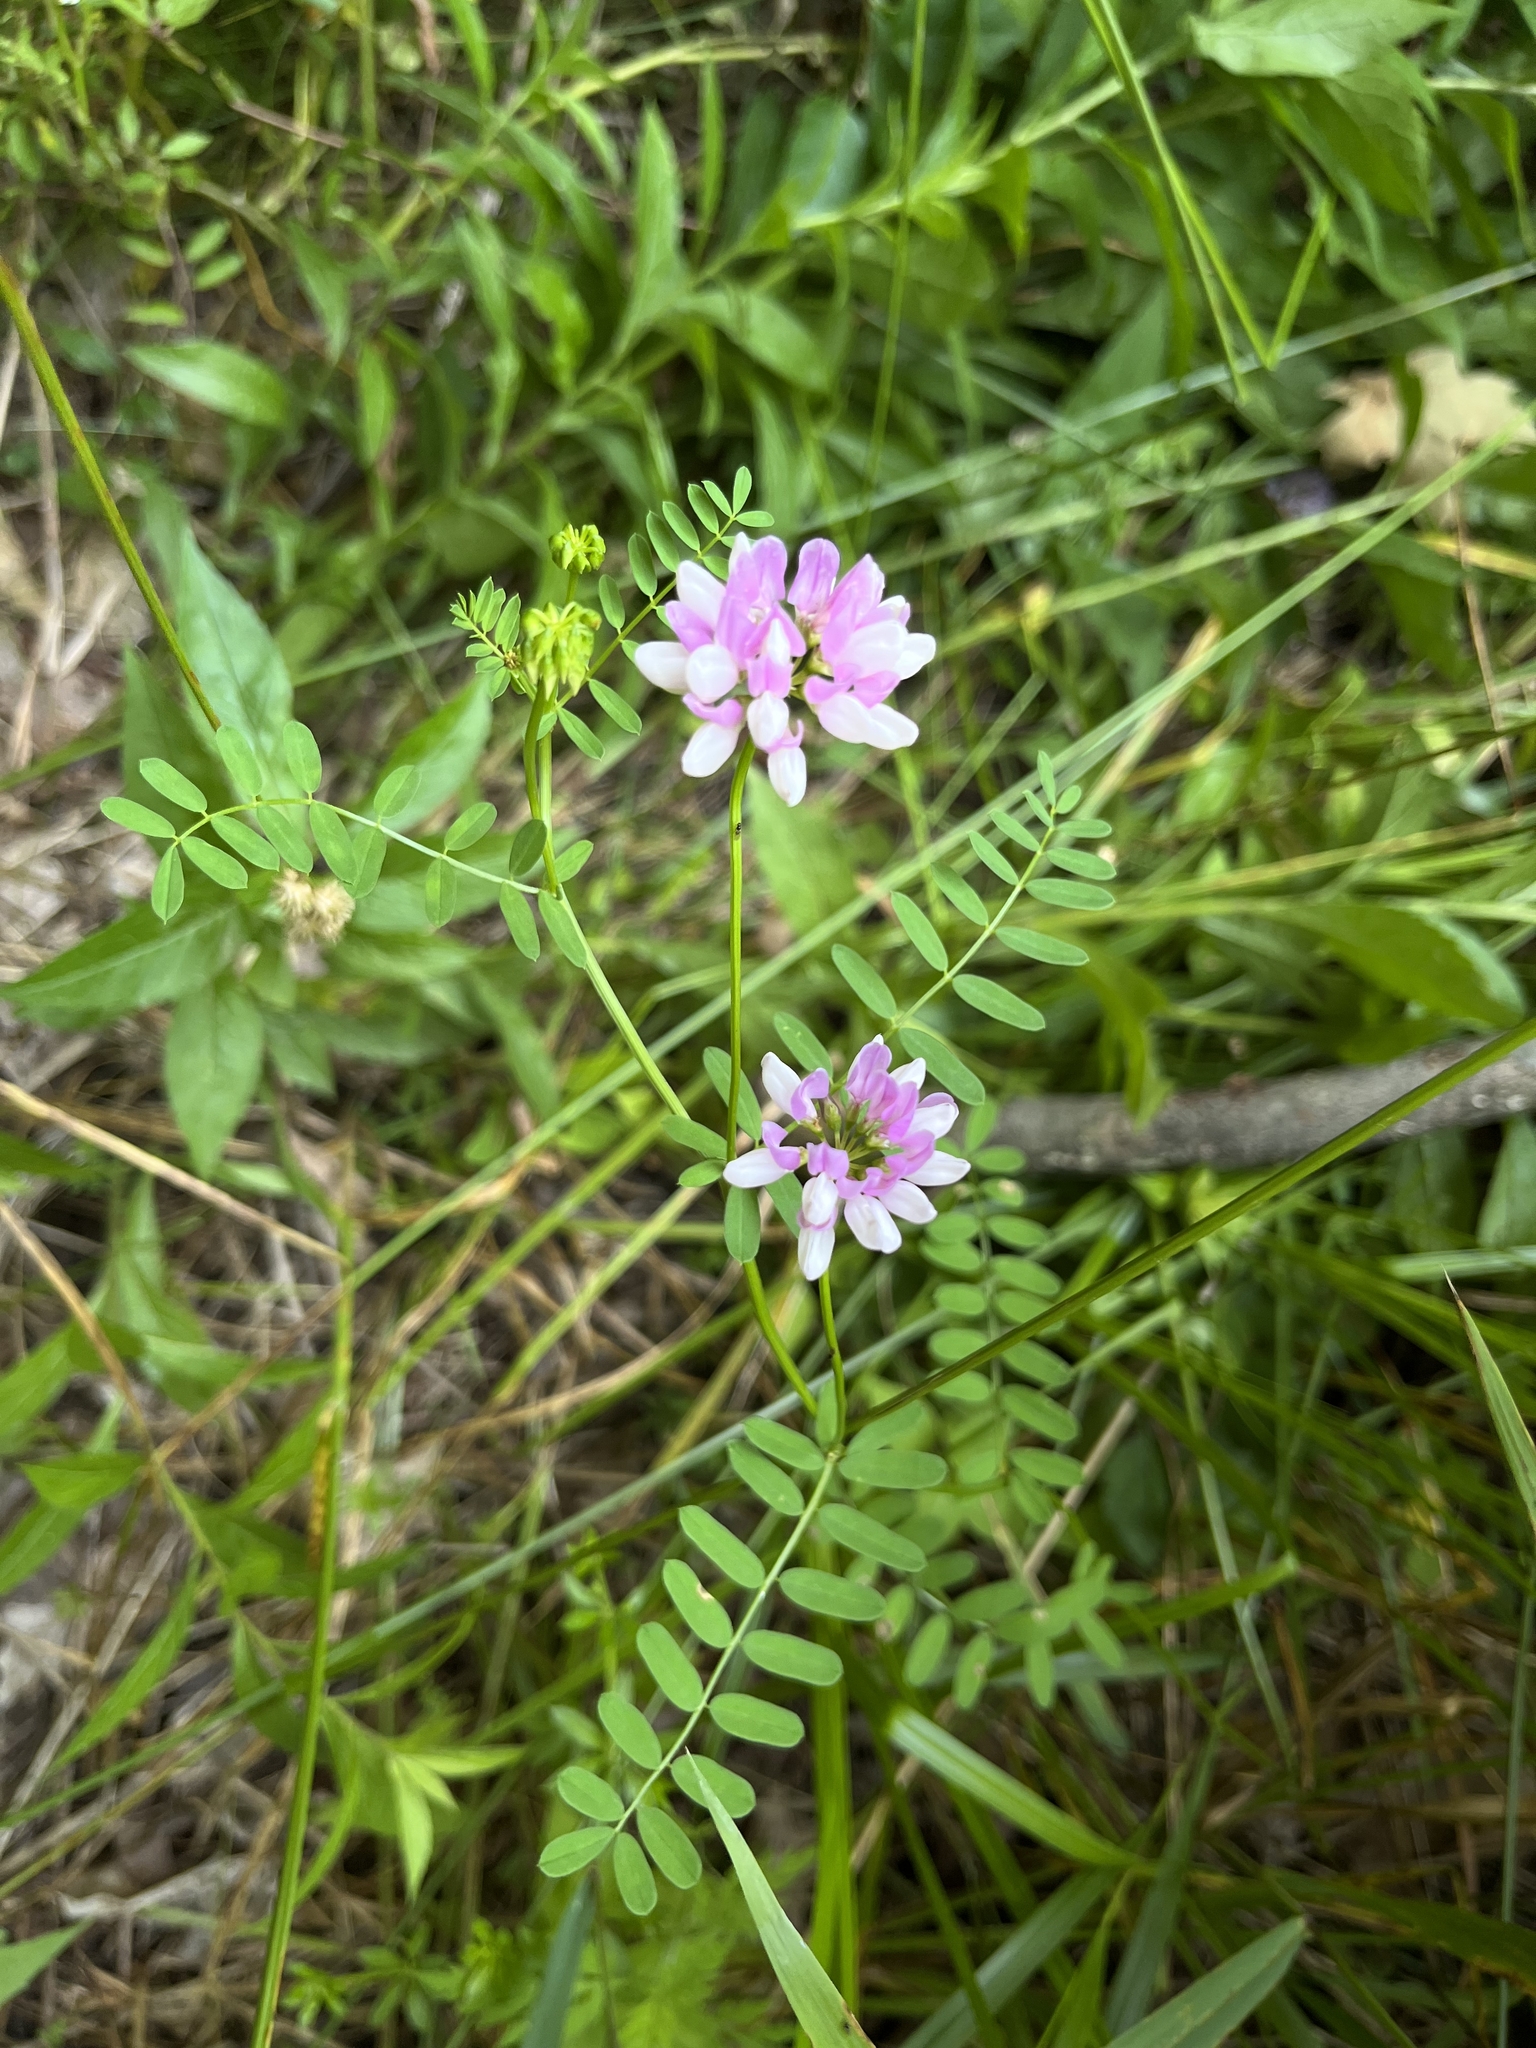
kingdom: Plantae
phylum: Tracheophyta
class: Magnoliopsida
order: Fabales
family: Fabaceae
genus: Coronilla
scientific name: Coronilla varia
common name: Crownvetch
